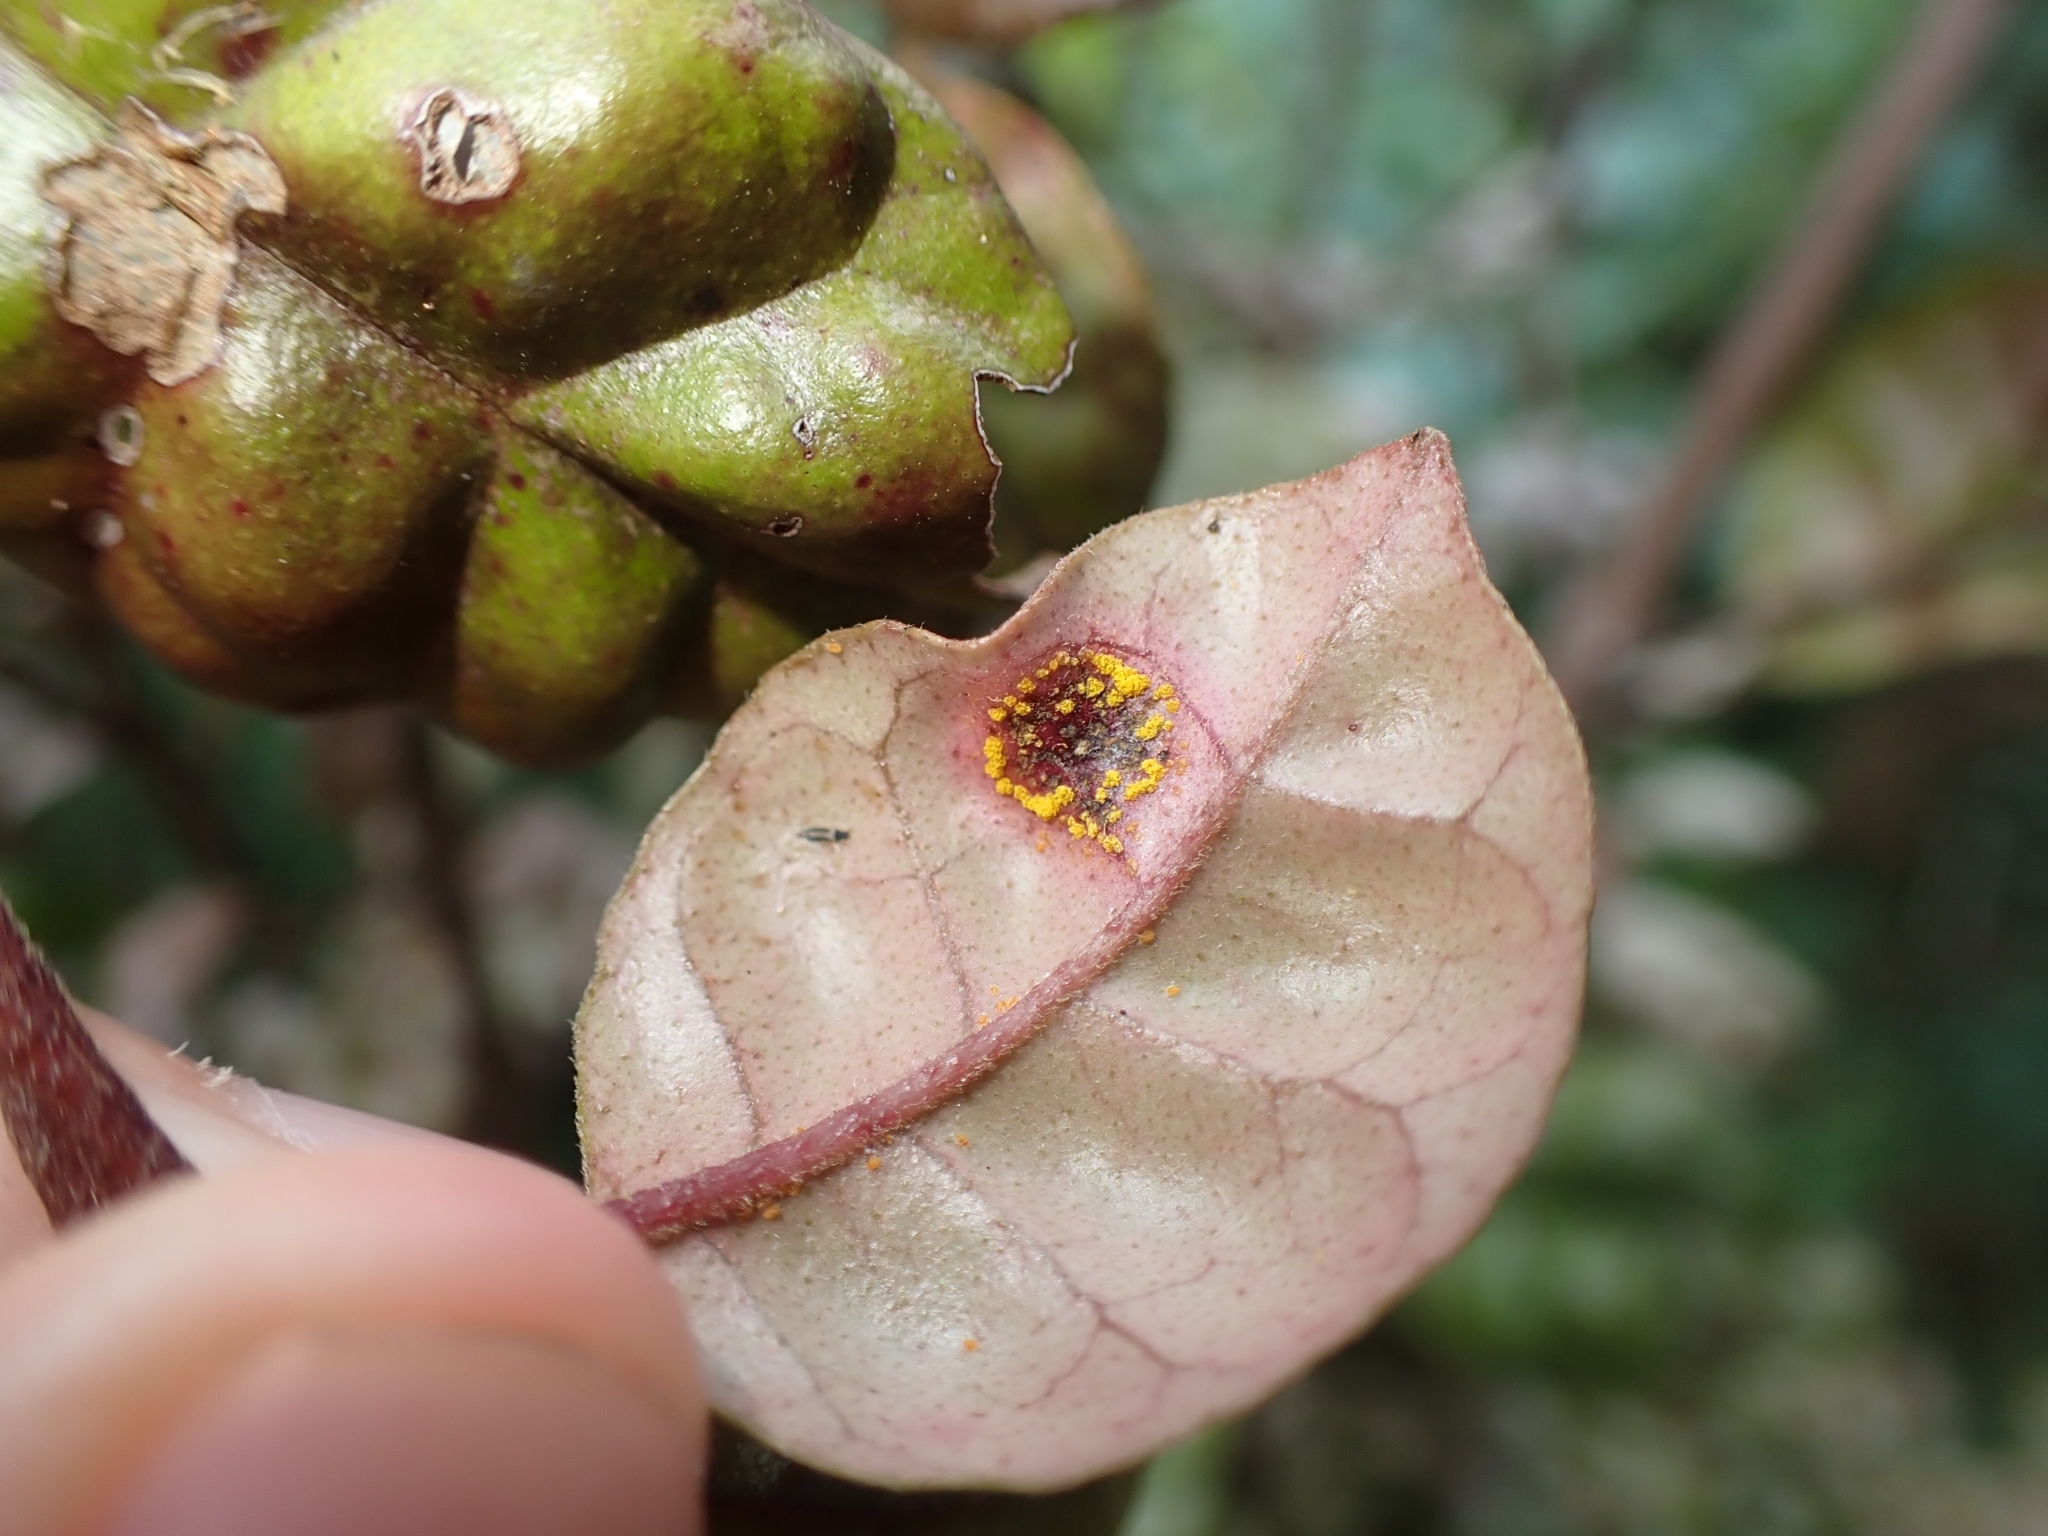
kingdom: Fungi
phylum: Basidiomycota
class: Pucciniomycetes
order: Pucciniales
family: Sphaerophragmiaceae
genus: Austropuccinia
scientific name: Austropuccinia psidii
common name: Myrtle rust
